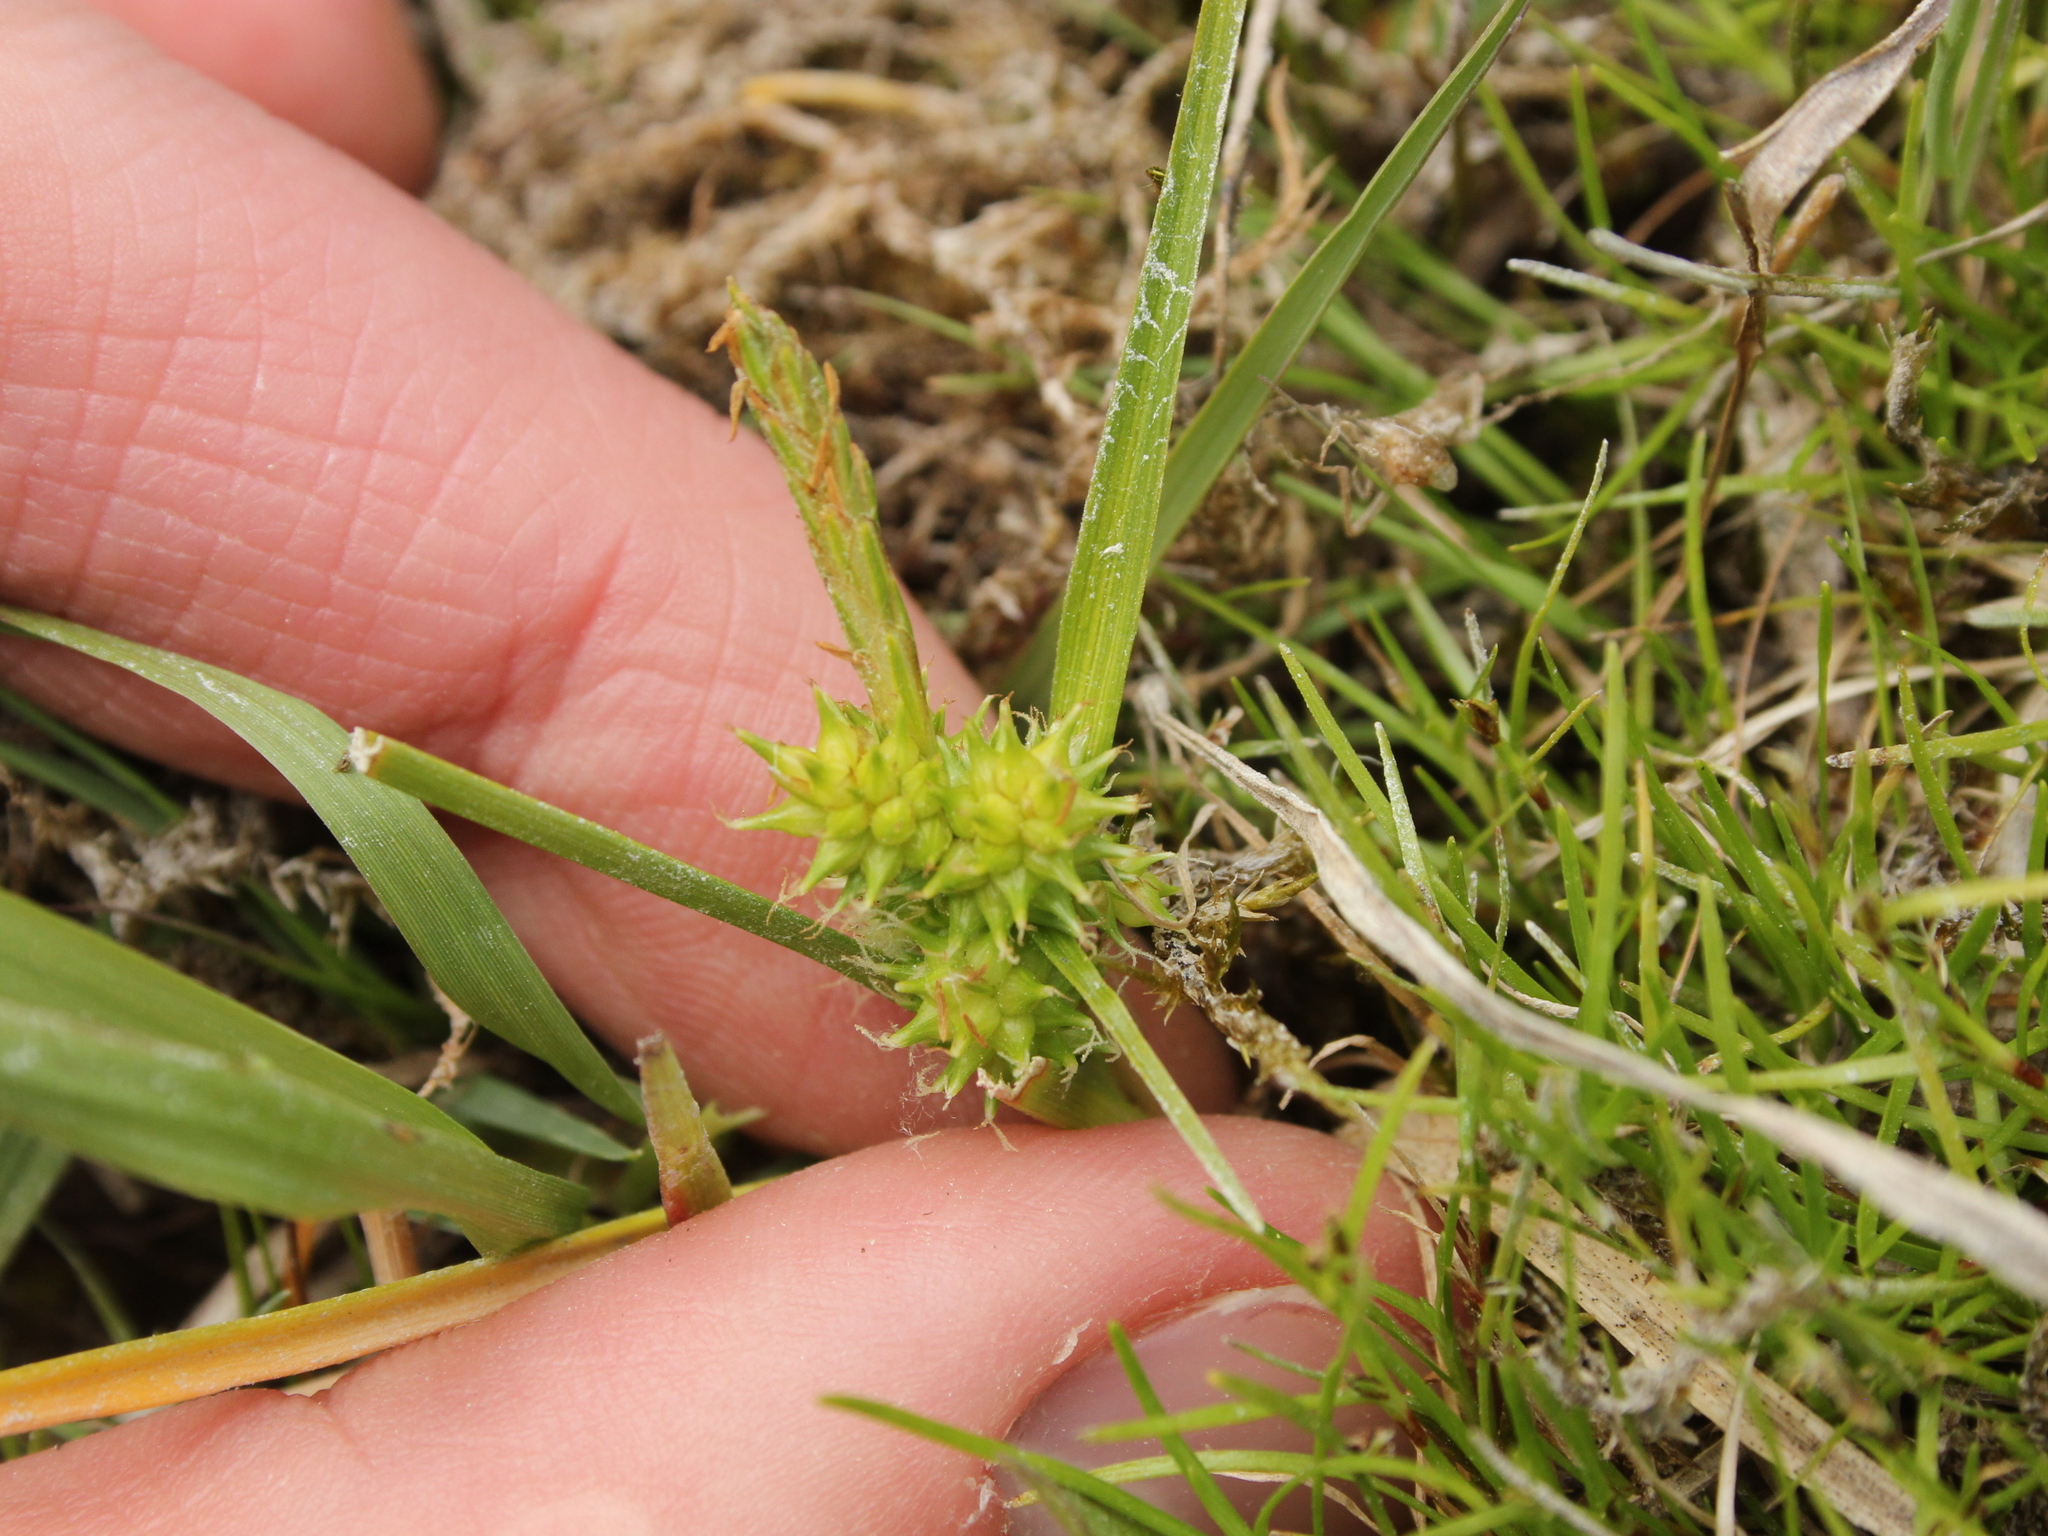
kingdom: Plantae
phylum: Tracheophyta
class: Liliopsida
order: Poales
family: Cyperaceae
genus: Carex
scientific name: Carex flaviformis
